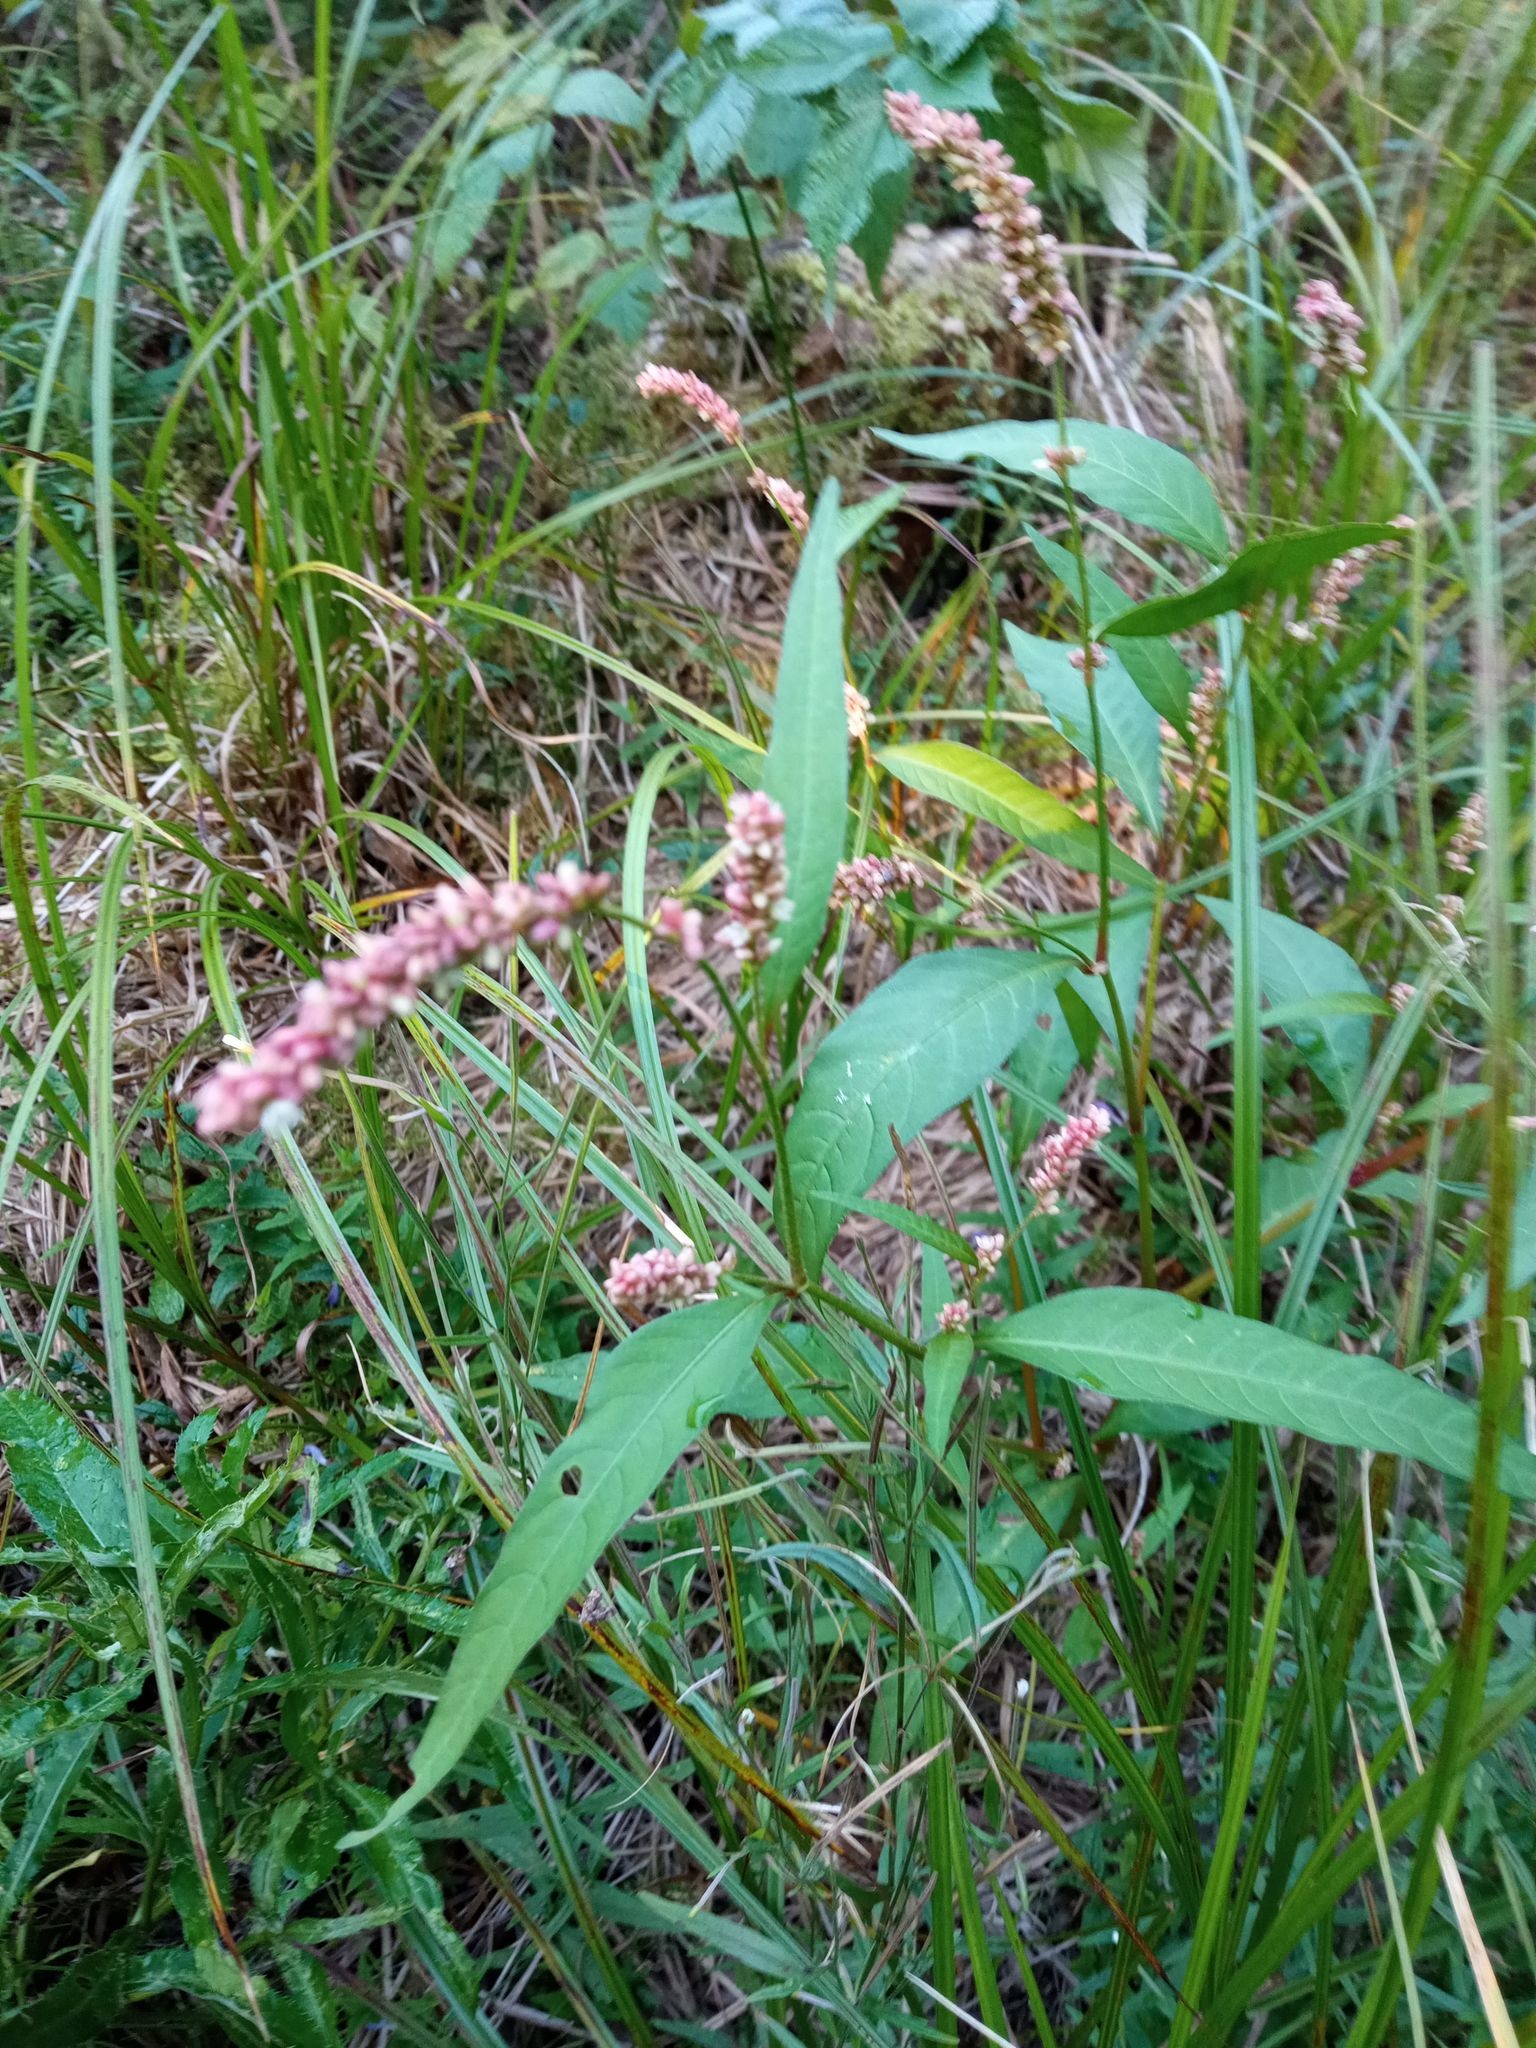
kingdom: Plantae
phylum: Tracheophyta
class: Magnoliopsida
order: Caryophyllales
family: Polygonaceae
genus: Persicaria
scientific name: Persicaria lapathifolia
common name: Curlytop knotweed
